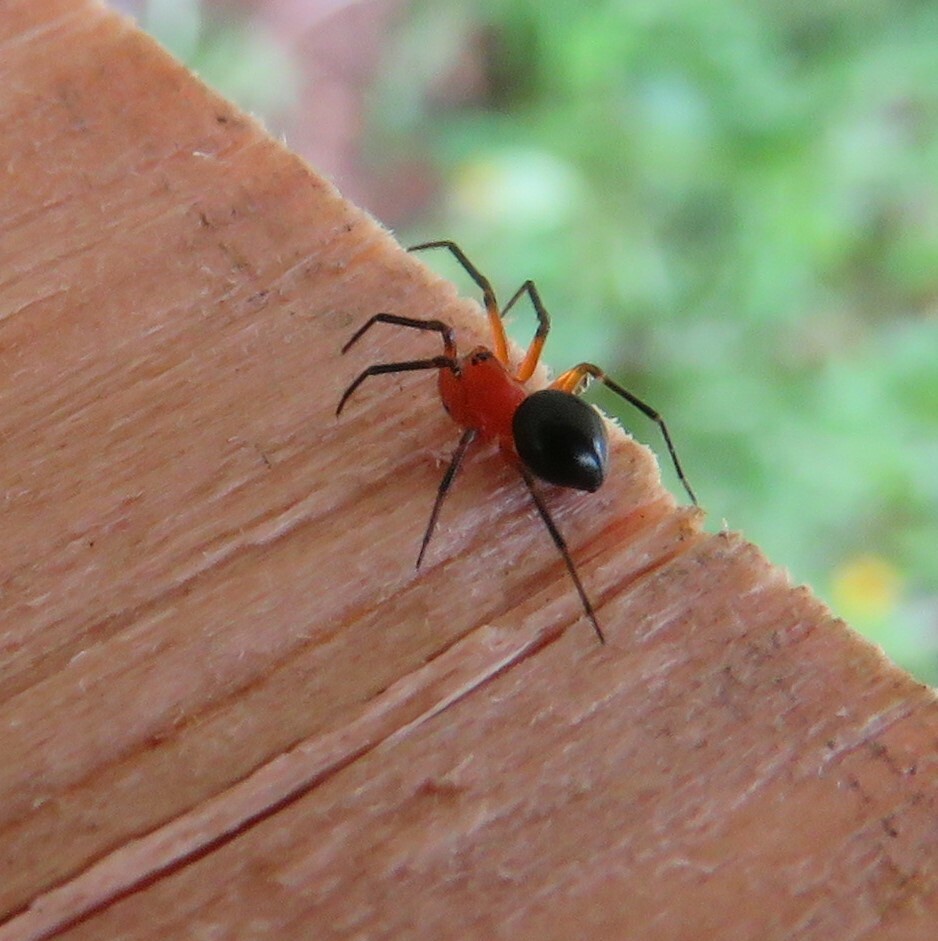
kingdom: Animalia
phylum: Arthropoda
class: Arachnida
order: Araneae
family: Linyphiidae
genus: Hypselistes
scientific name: Hypselistes florens
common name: Peatland sheetweb weaver
